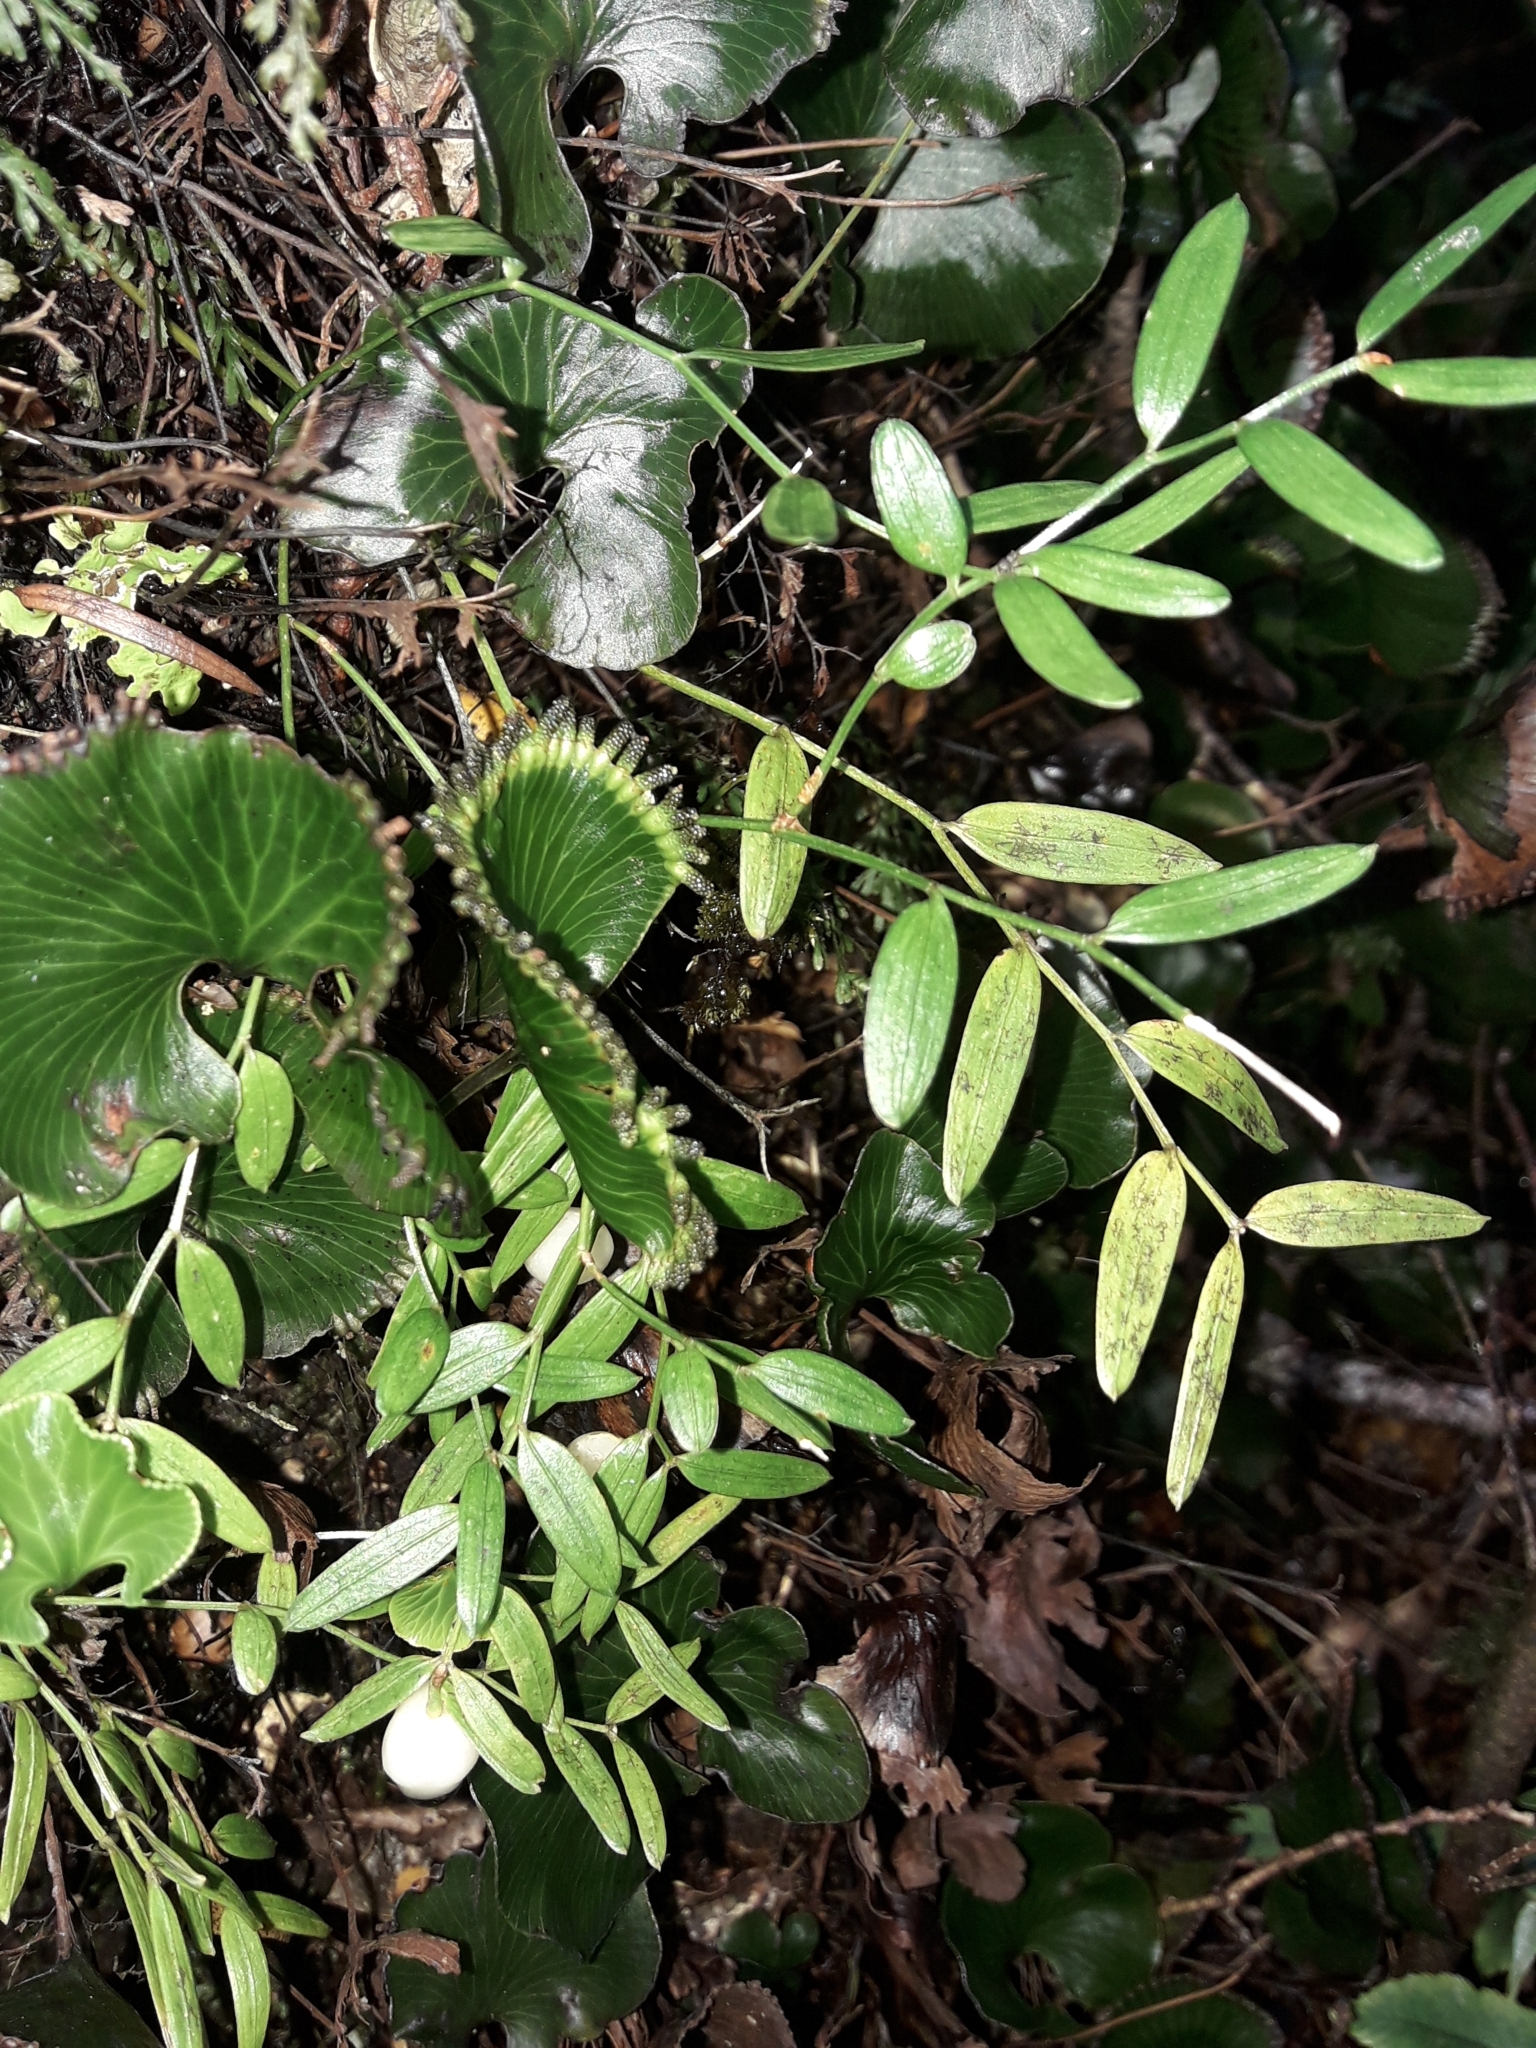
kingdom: Plantae
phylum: Tracheophyta
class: Liliopsida
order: Liliales
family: Alstroemeriaceae
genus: Luzuriaga
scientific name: Luzuriaga parviflora
